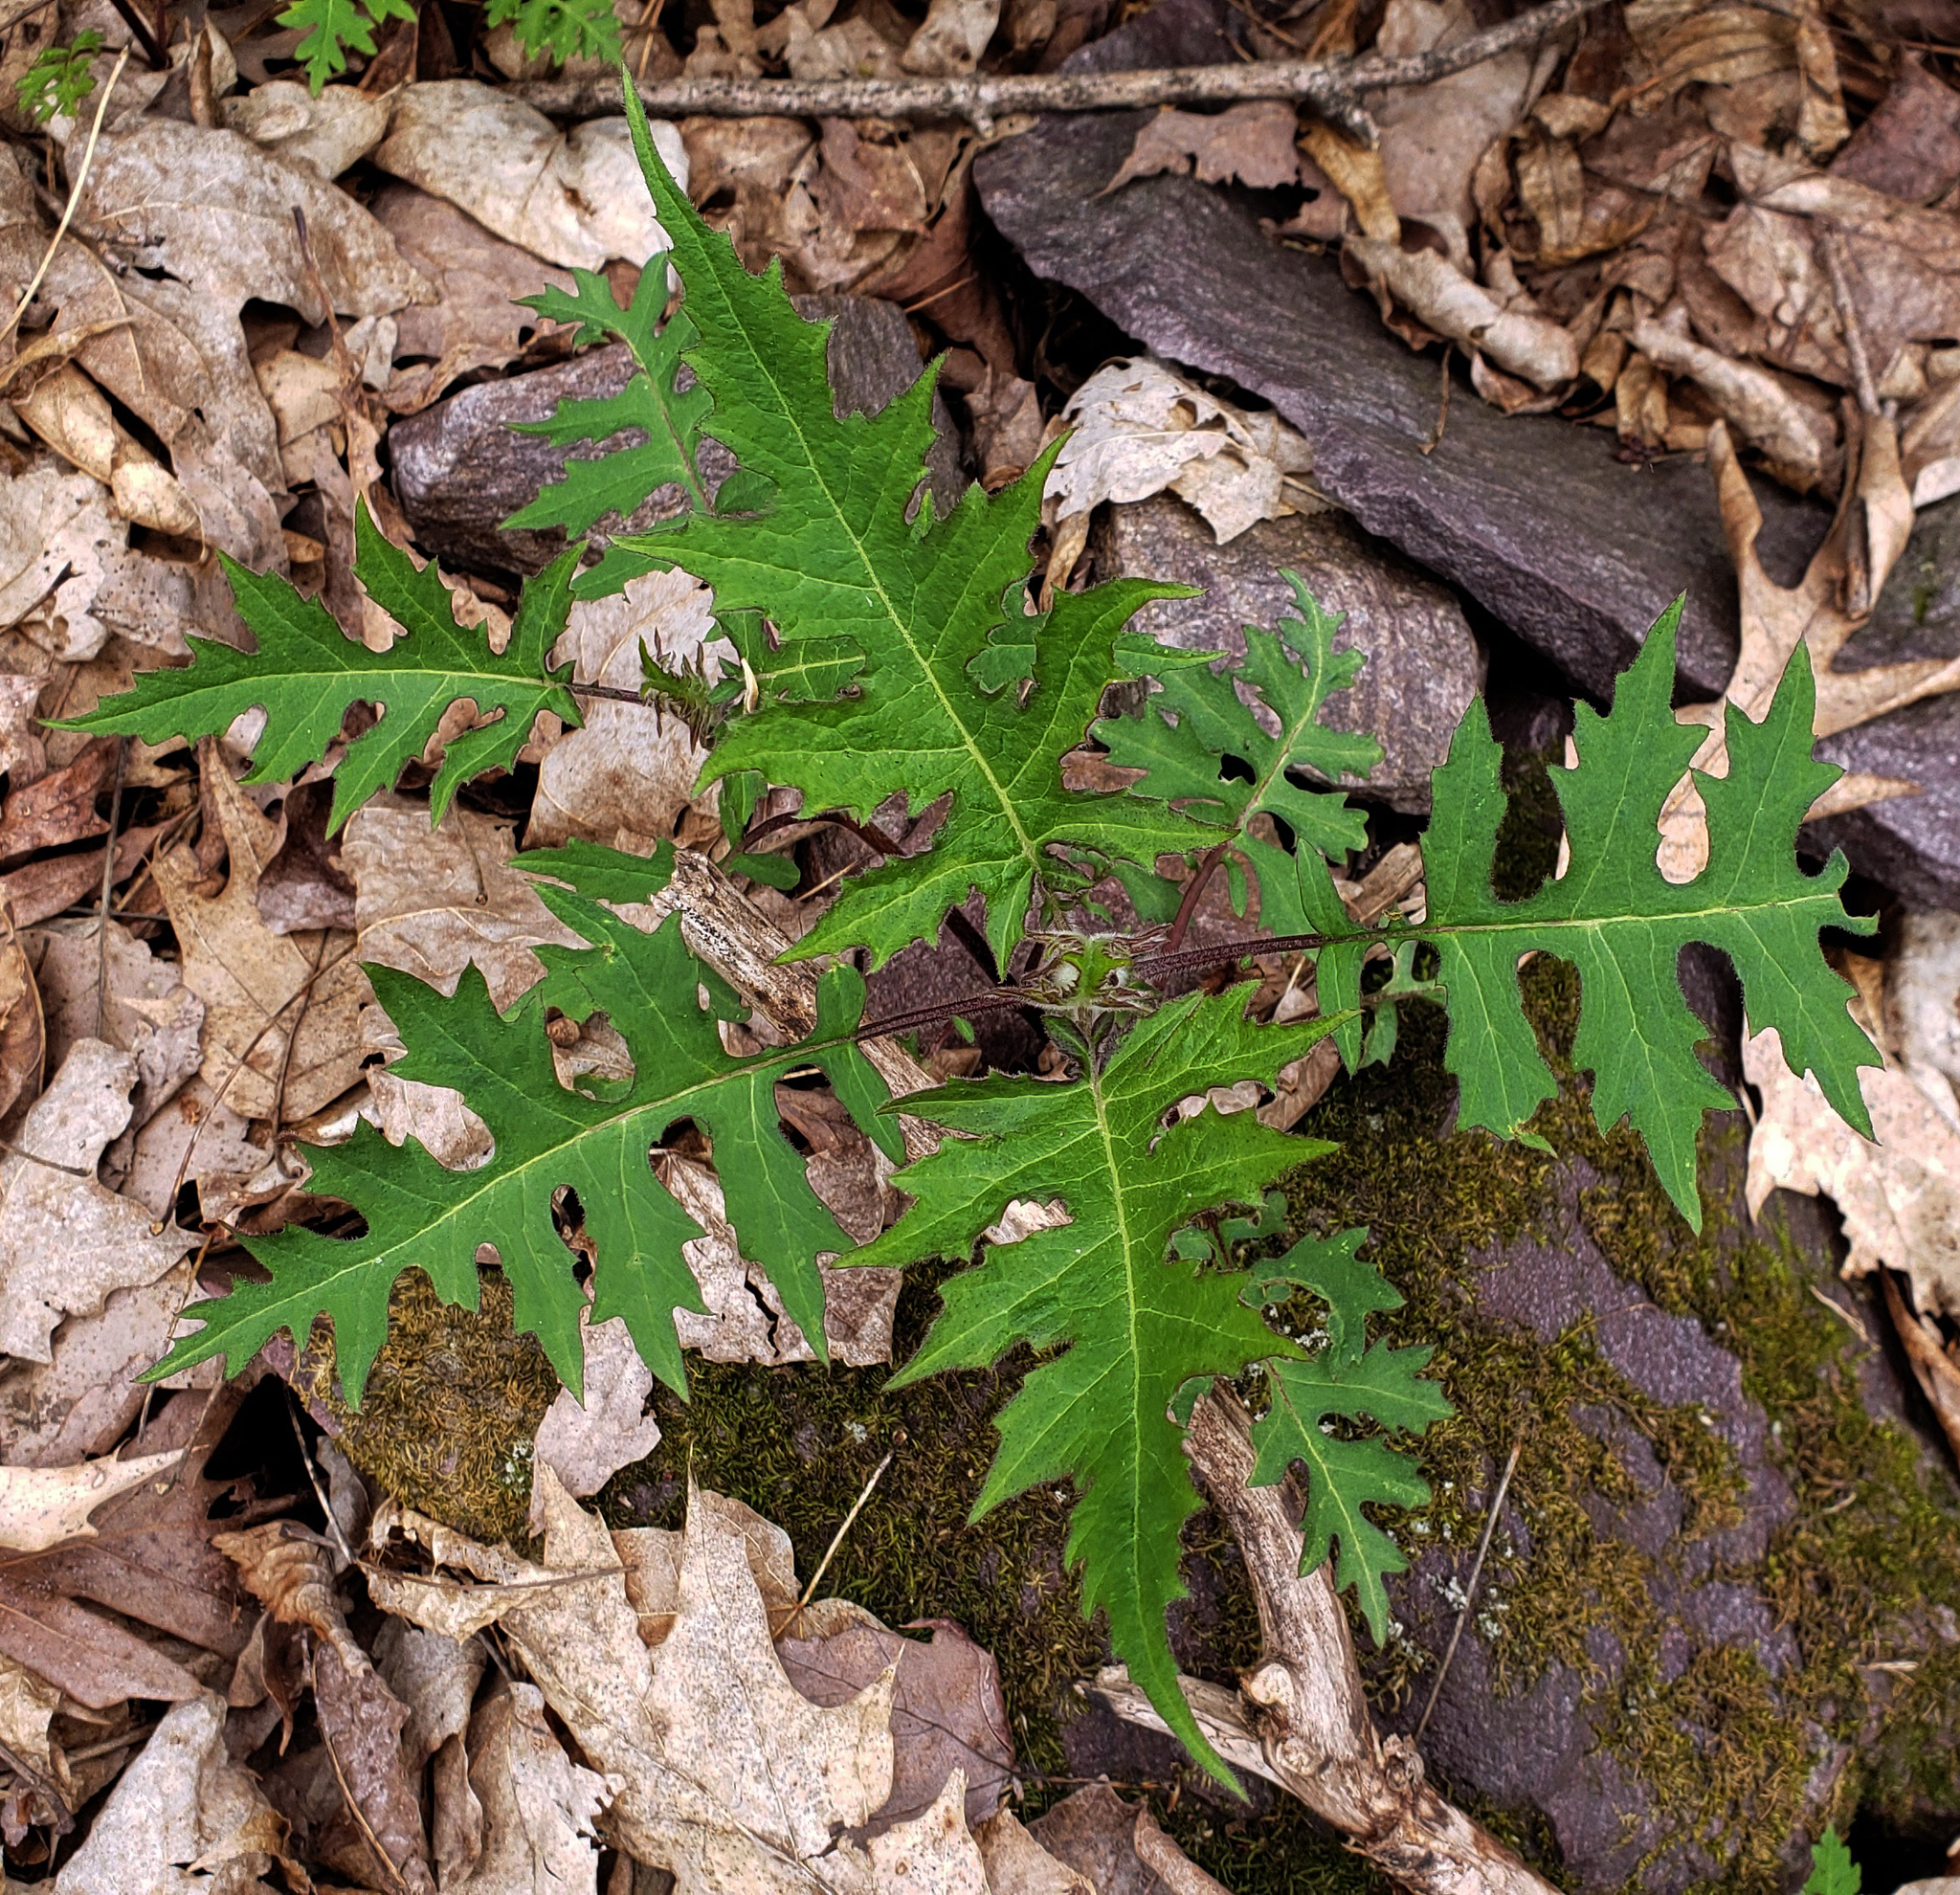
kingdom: Plantae
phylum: Tracheophyta
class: Magnoliopsida
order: Asterales
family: Asteraceae
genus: Polymnia
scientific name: Polymnia canadensis
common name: Pale-flowered leafcup
